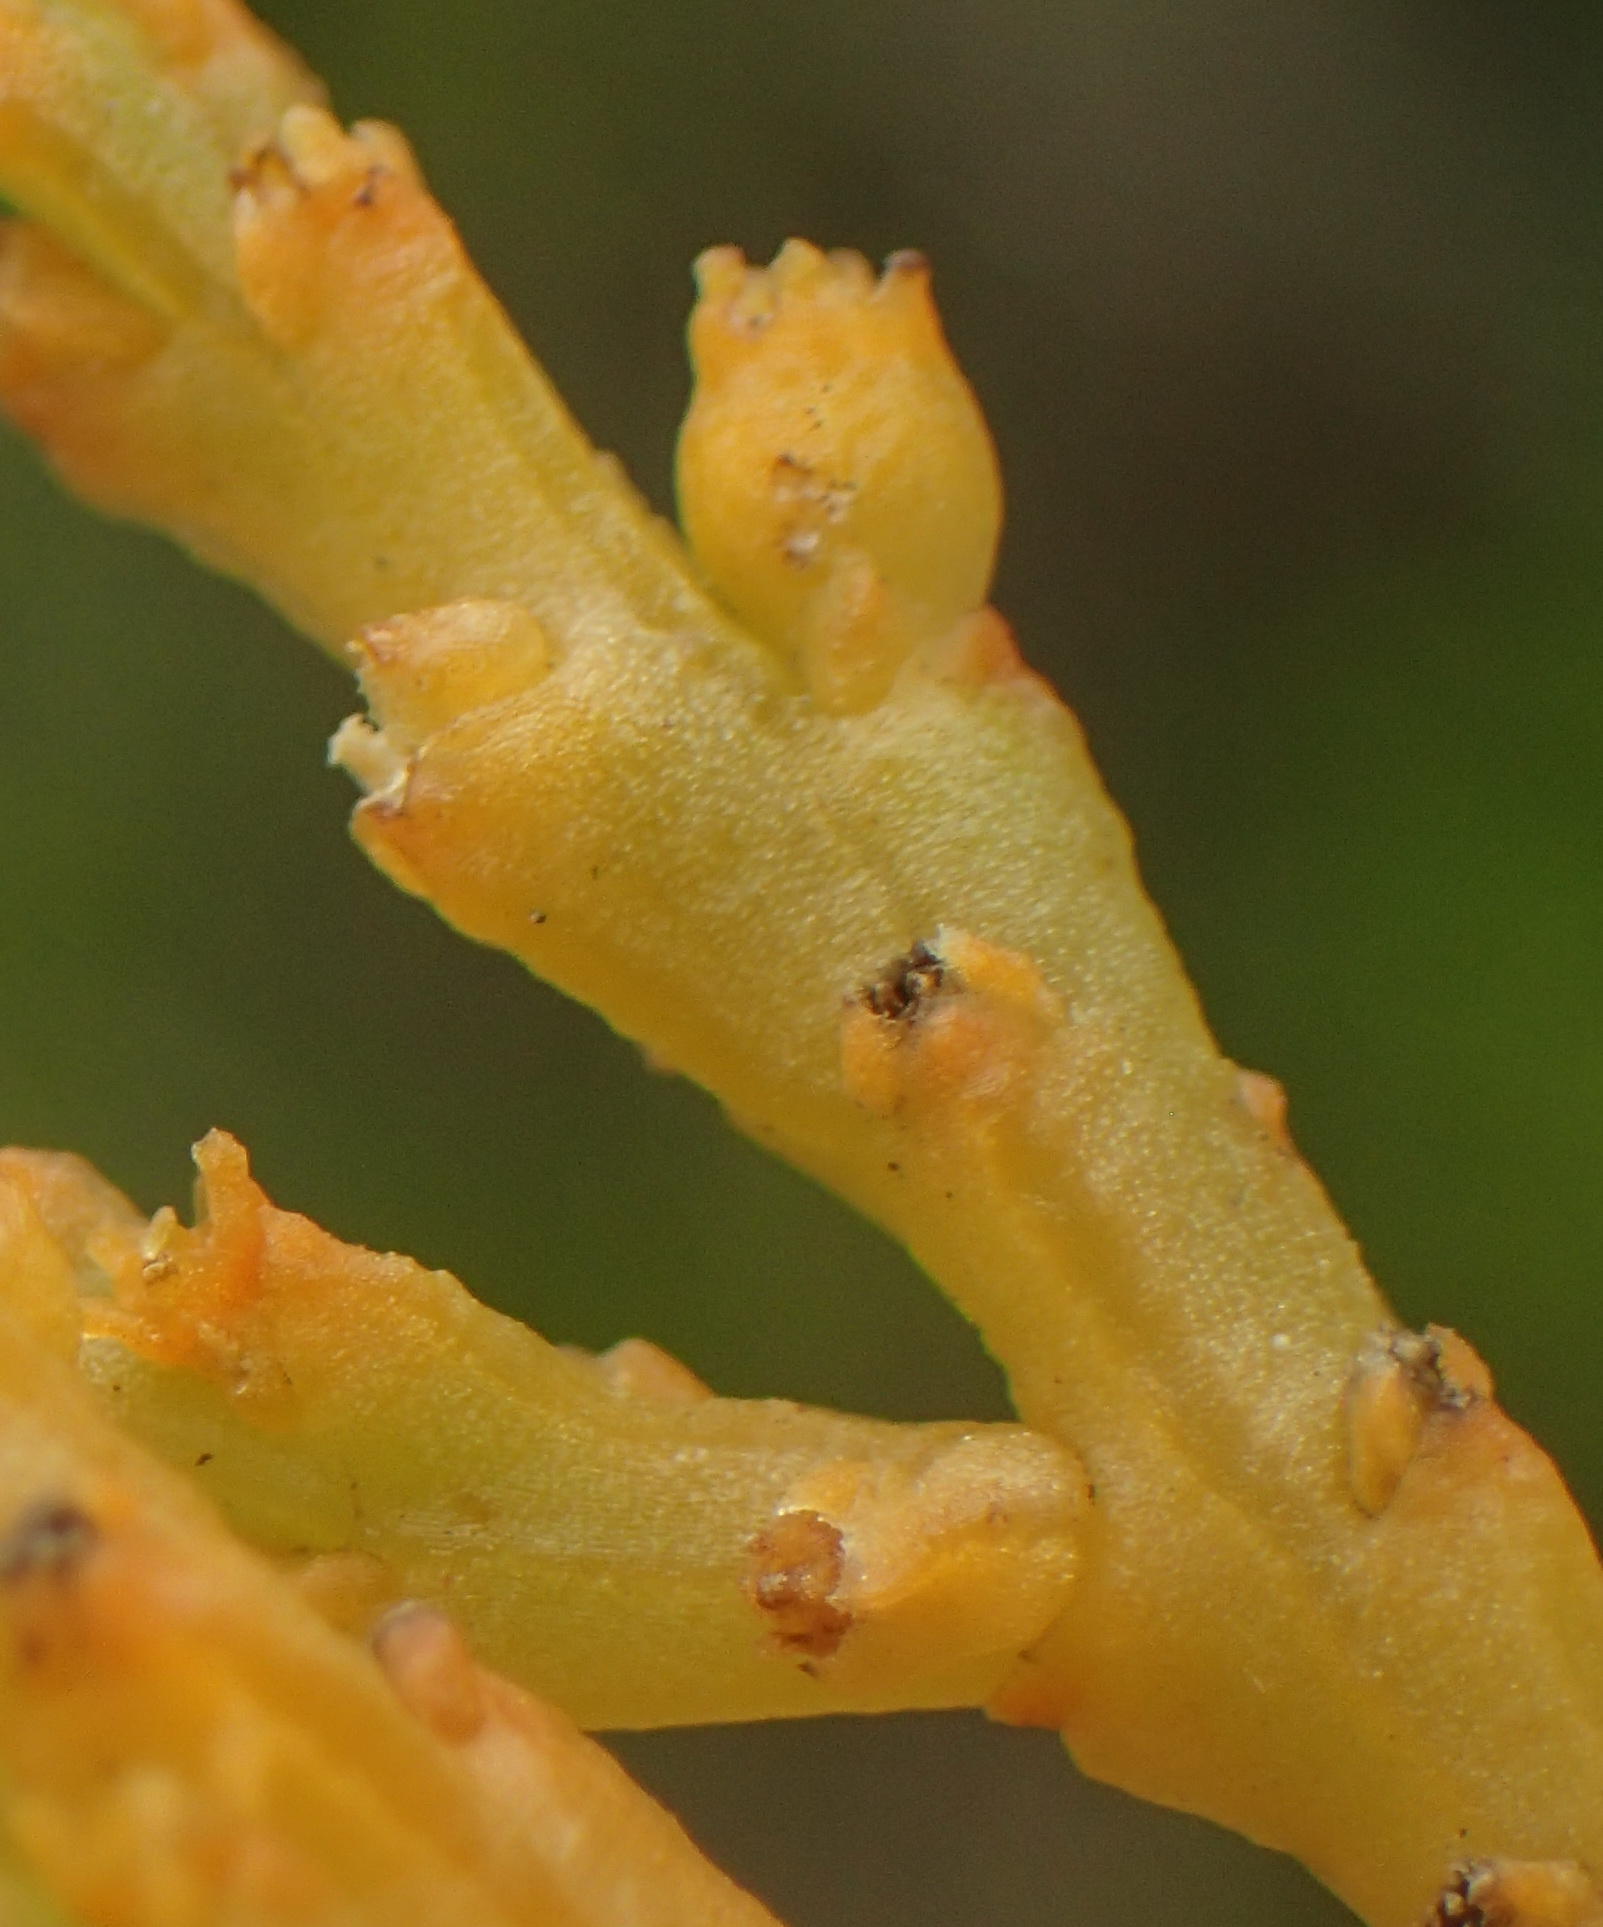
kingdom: Plantae
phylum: Tracheophyta
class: Magnoliopsida
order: Santalales
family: Thesiaceae
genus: Thesium
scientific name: Thesium confusum
